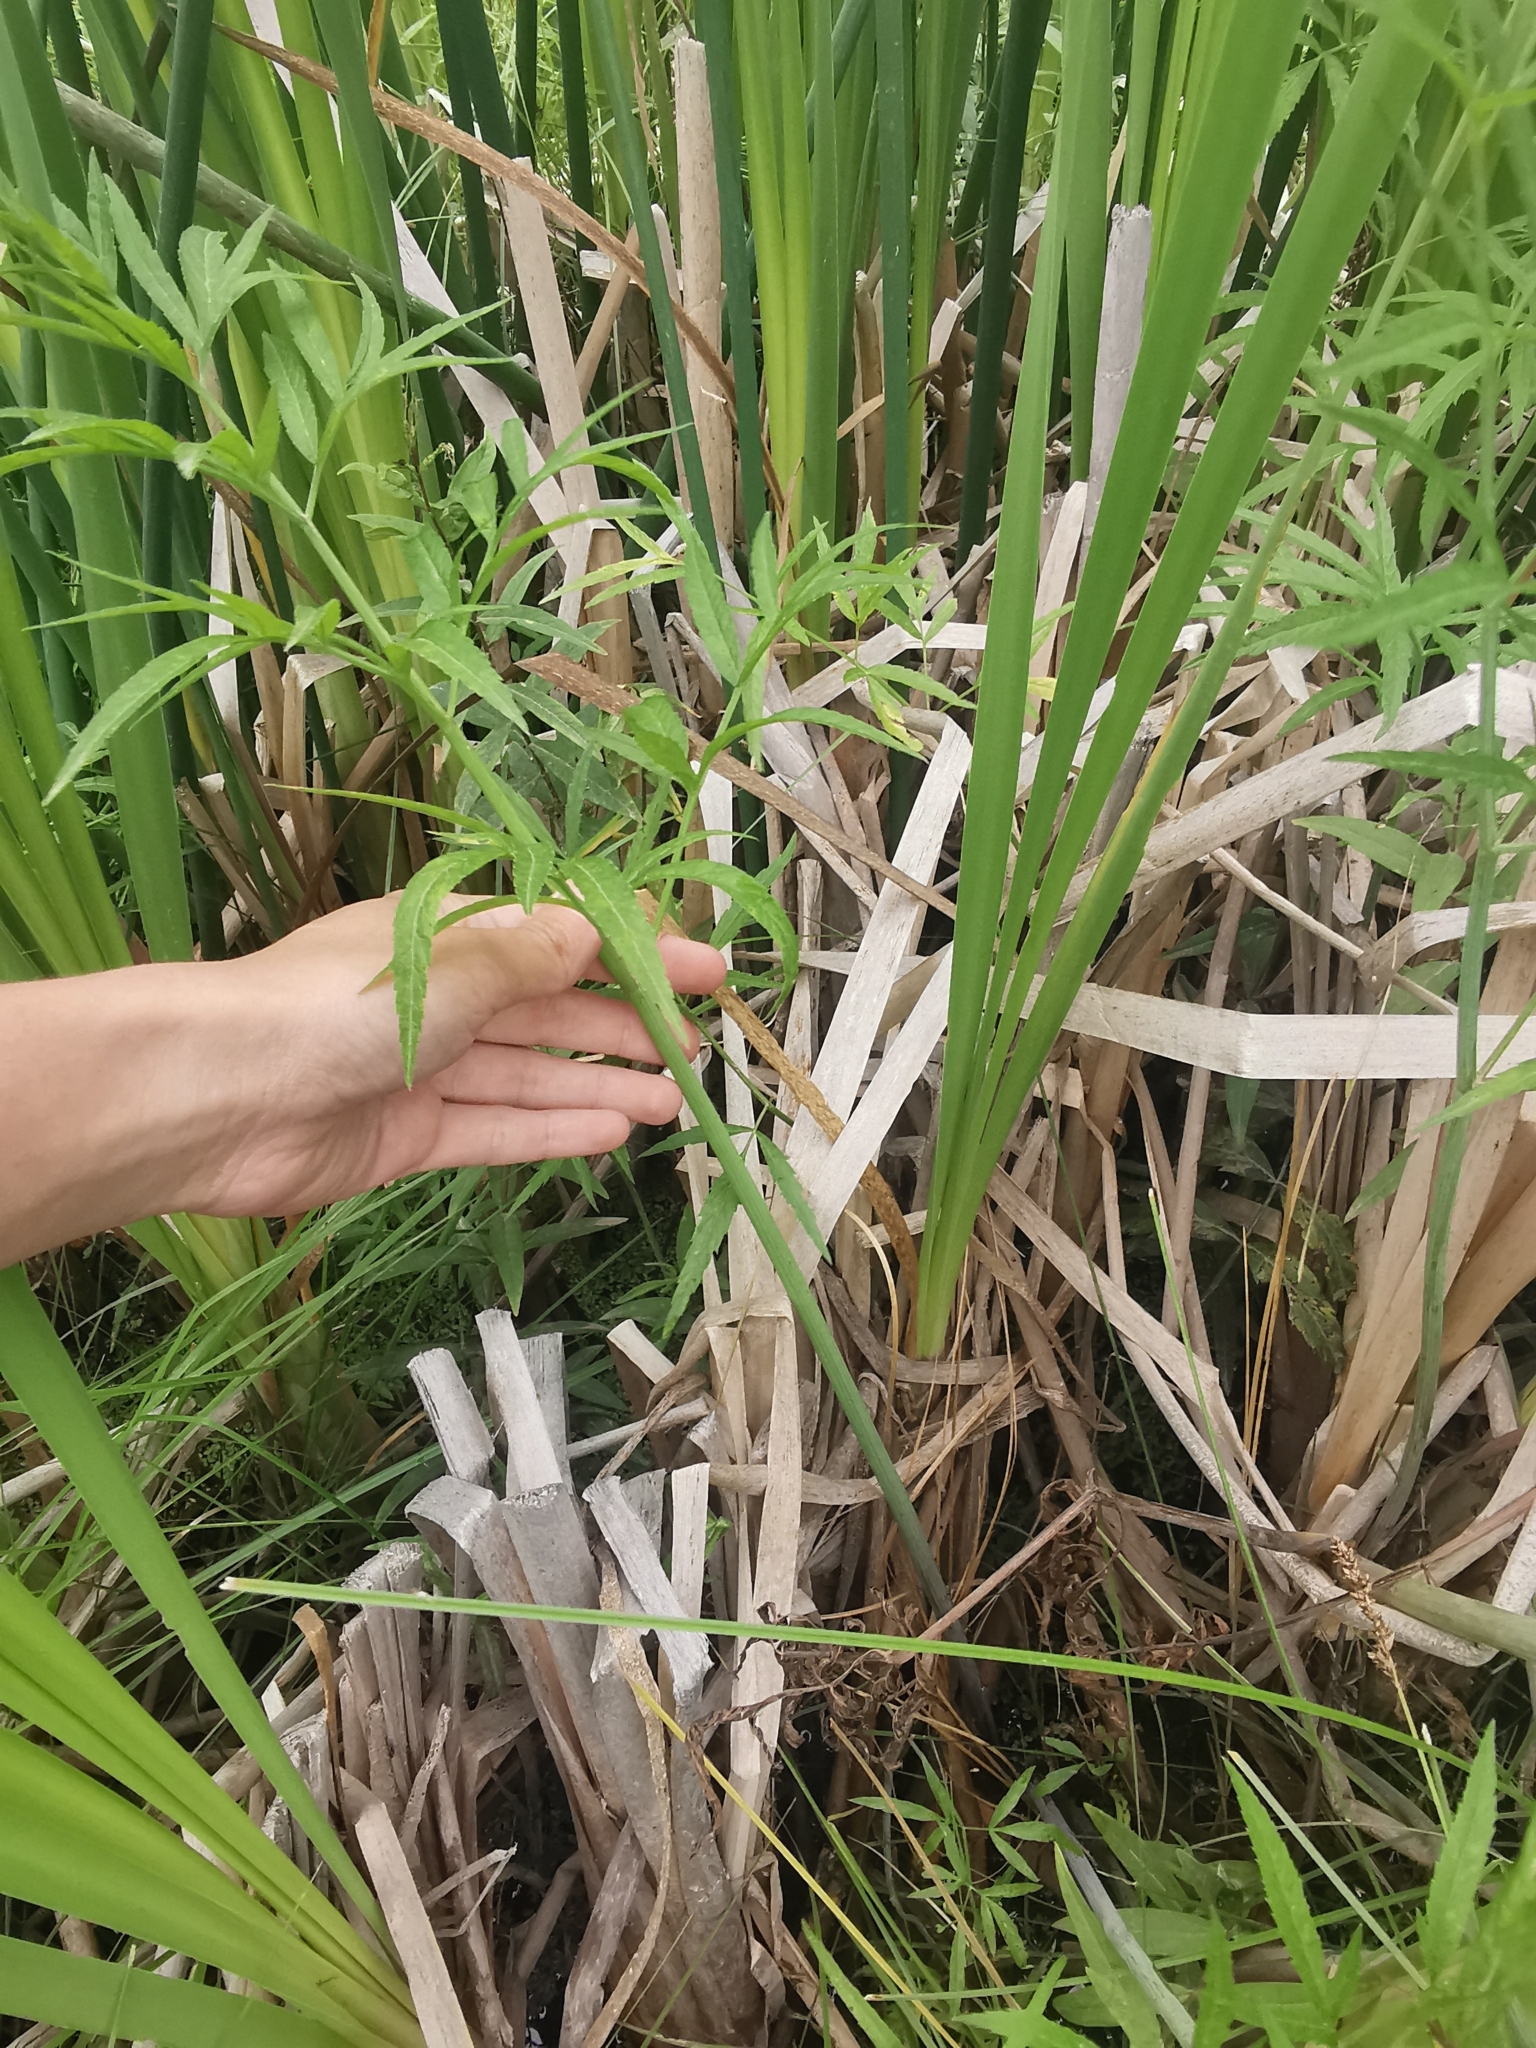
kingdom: Plantae
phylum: Tracheophyta
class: Magnoliopsida
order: Apiales
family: Apiaceae
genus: Cicuta
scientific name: Cicuta virosa
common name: Cowbane
